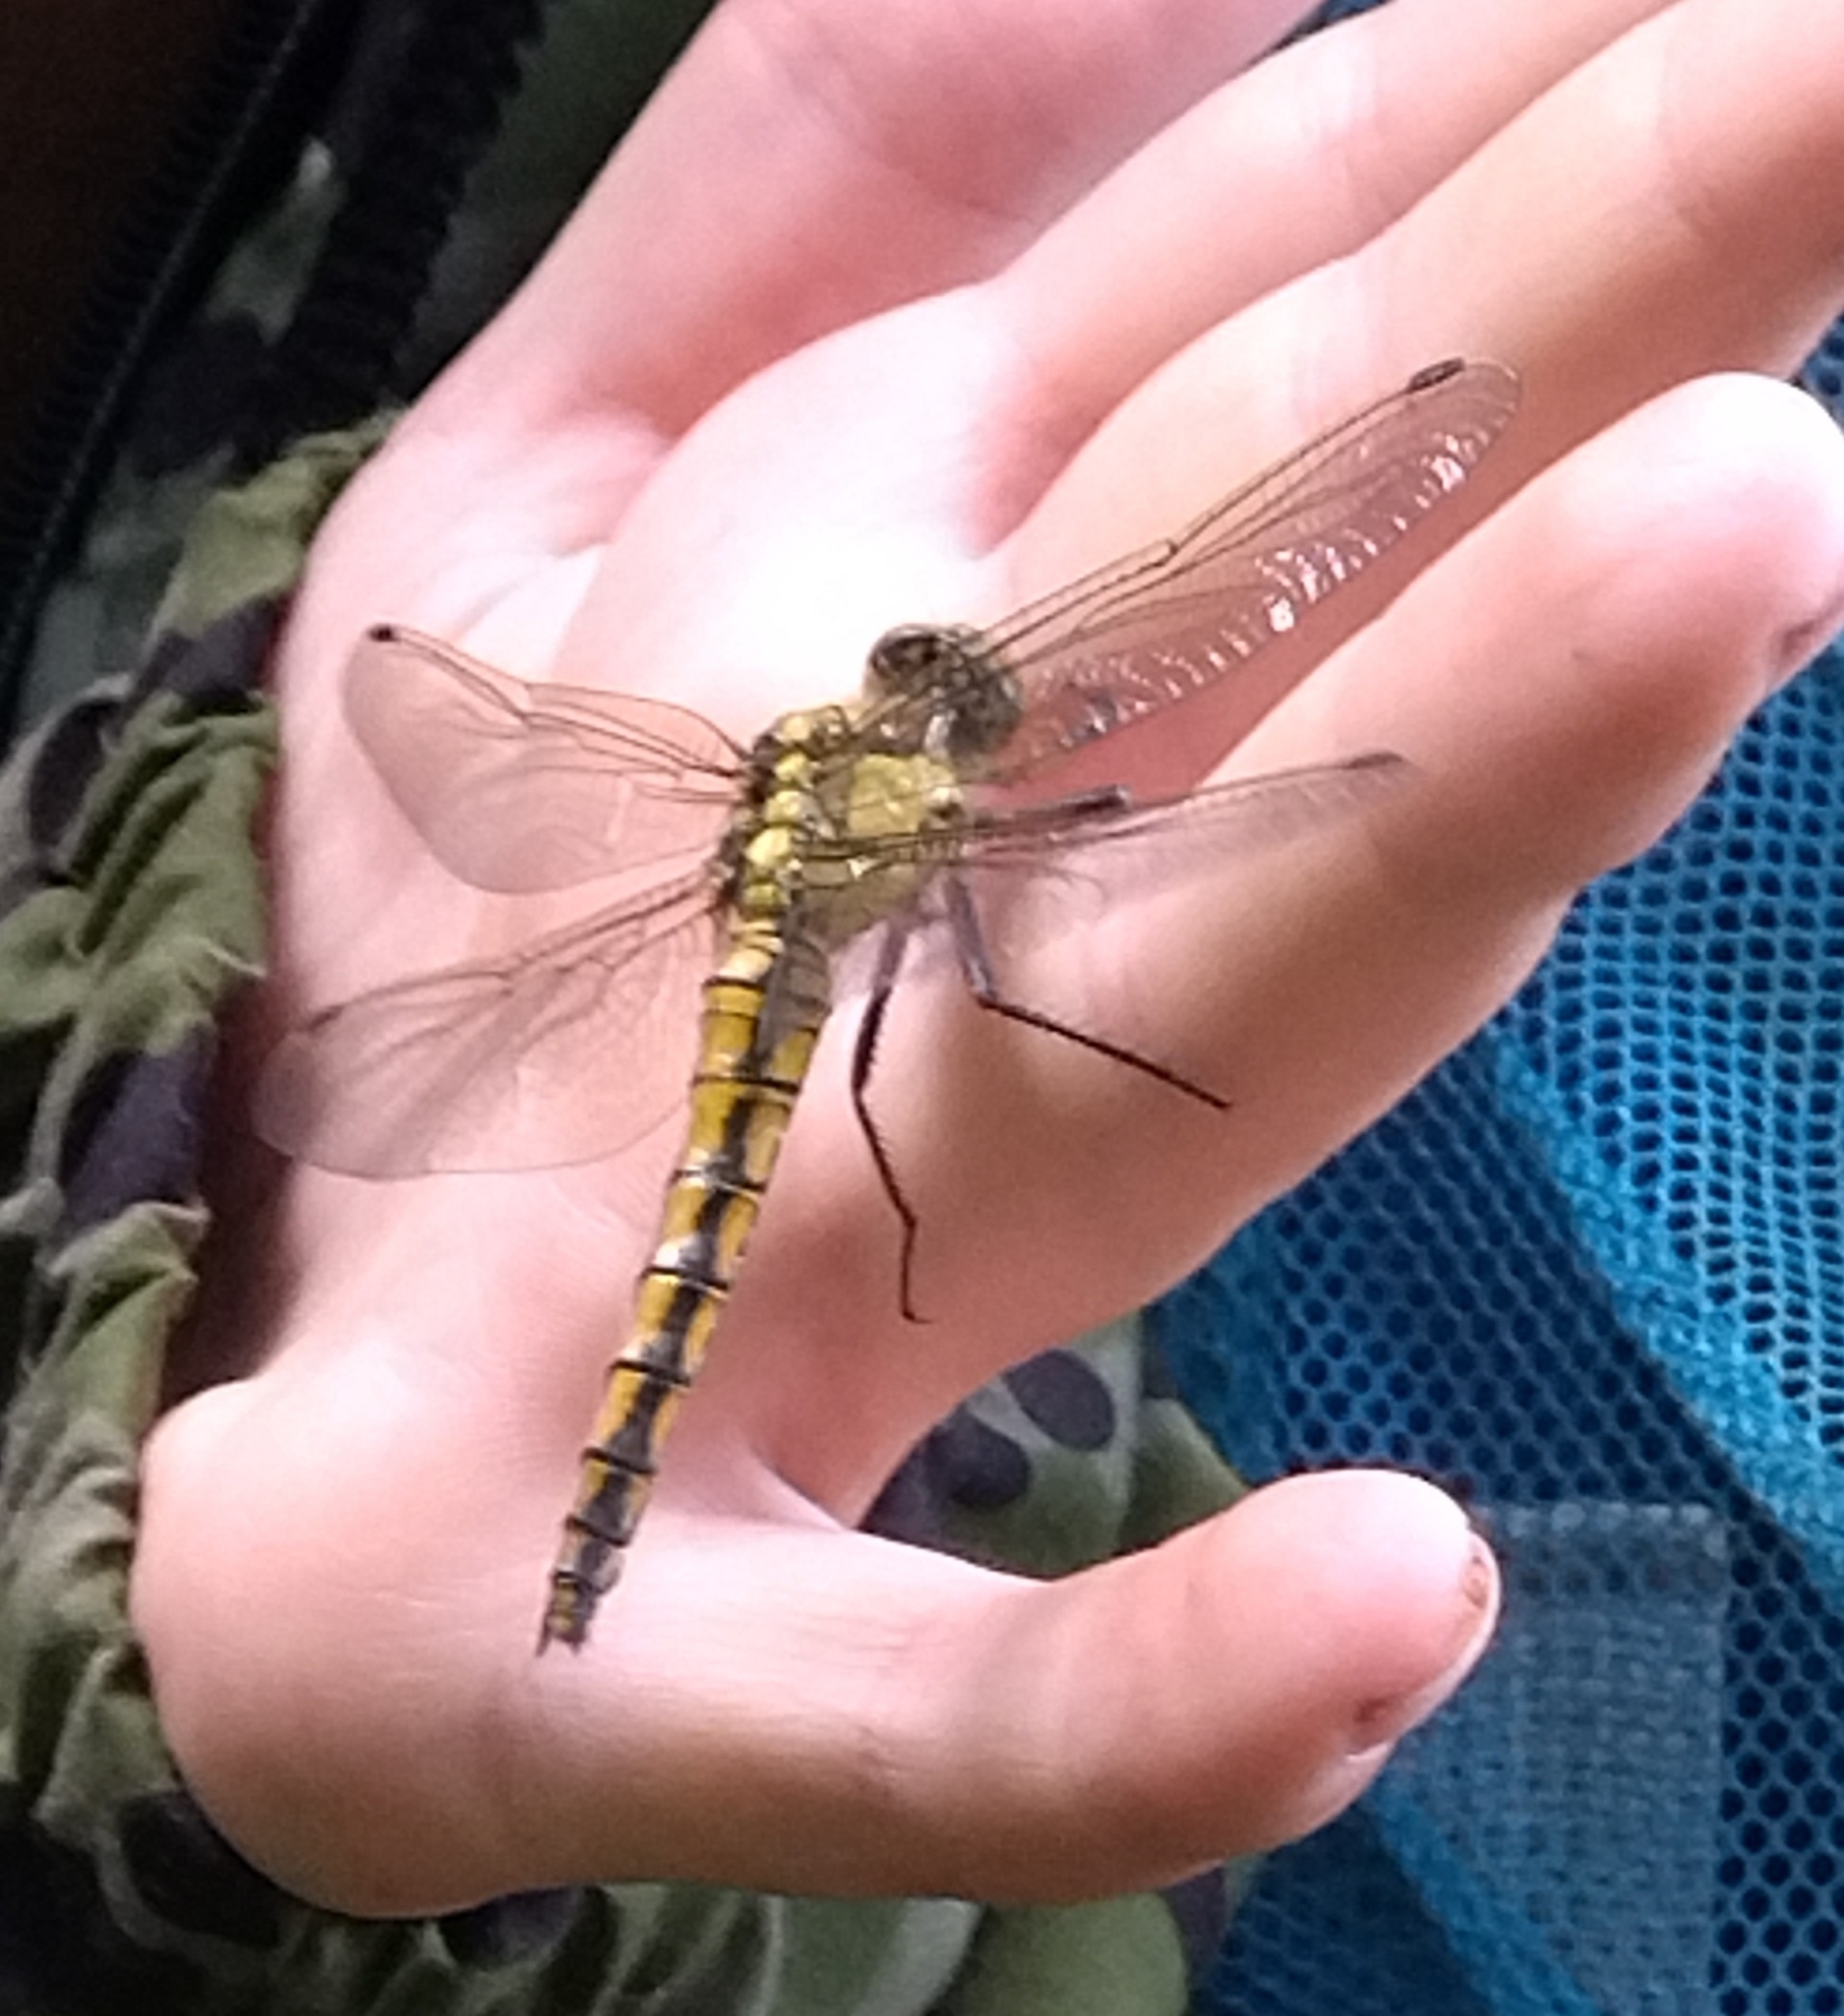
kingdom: Animalia
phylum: Arthropoda
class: Insecta
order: Odonata
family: Libellulidae
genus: Orthetrum
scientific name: Orthetrum cancellatum
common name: Black-tailed skimmer
